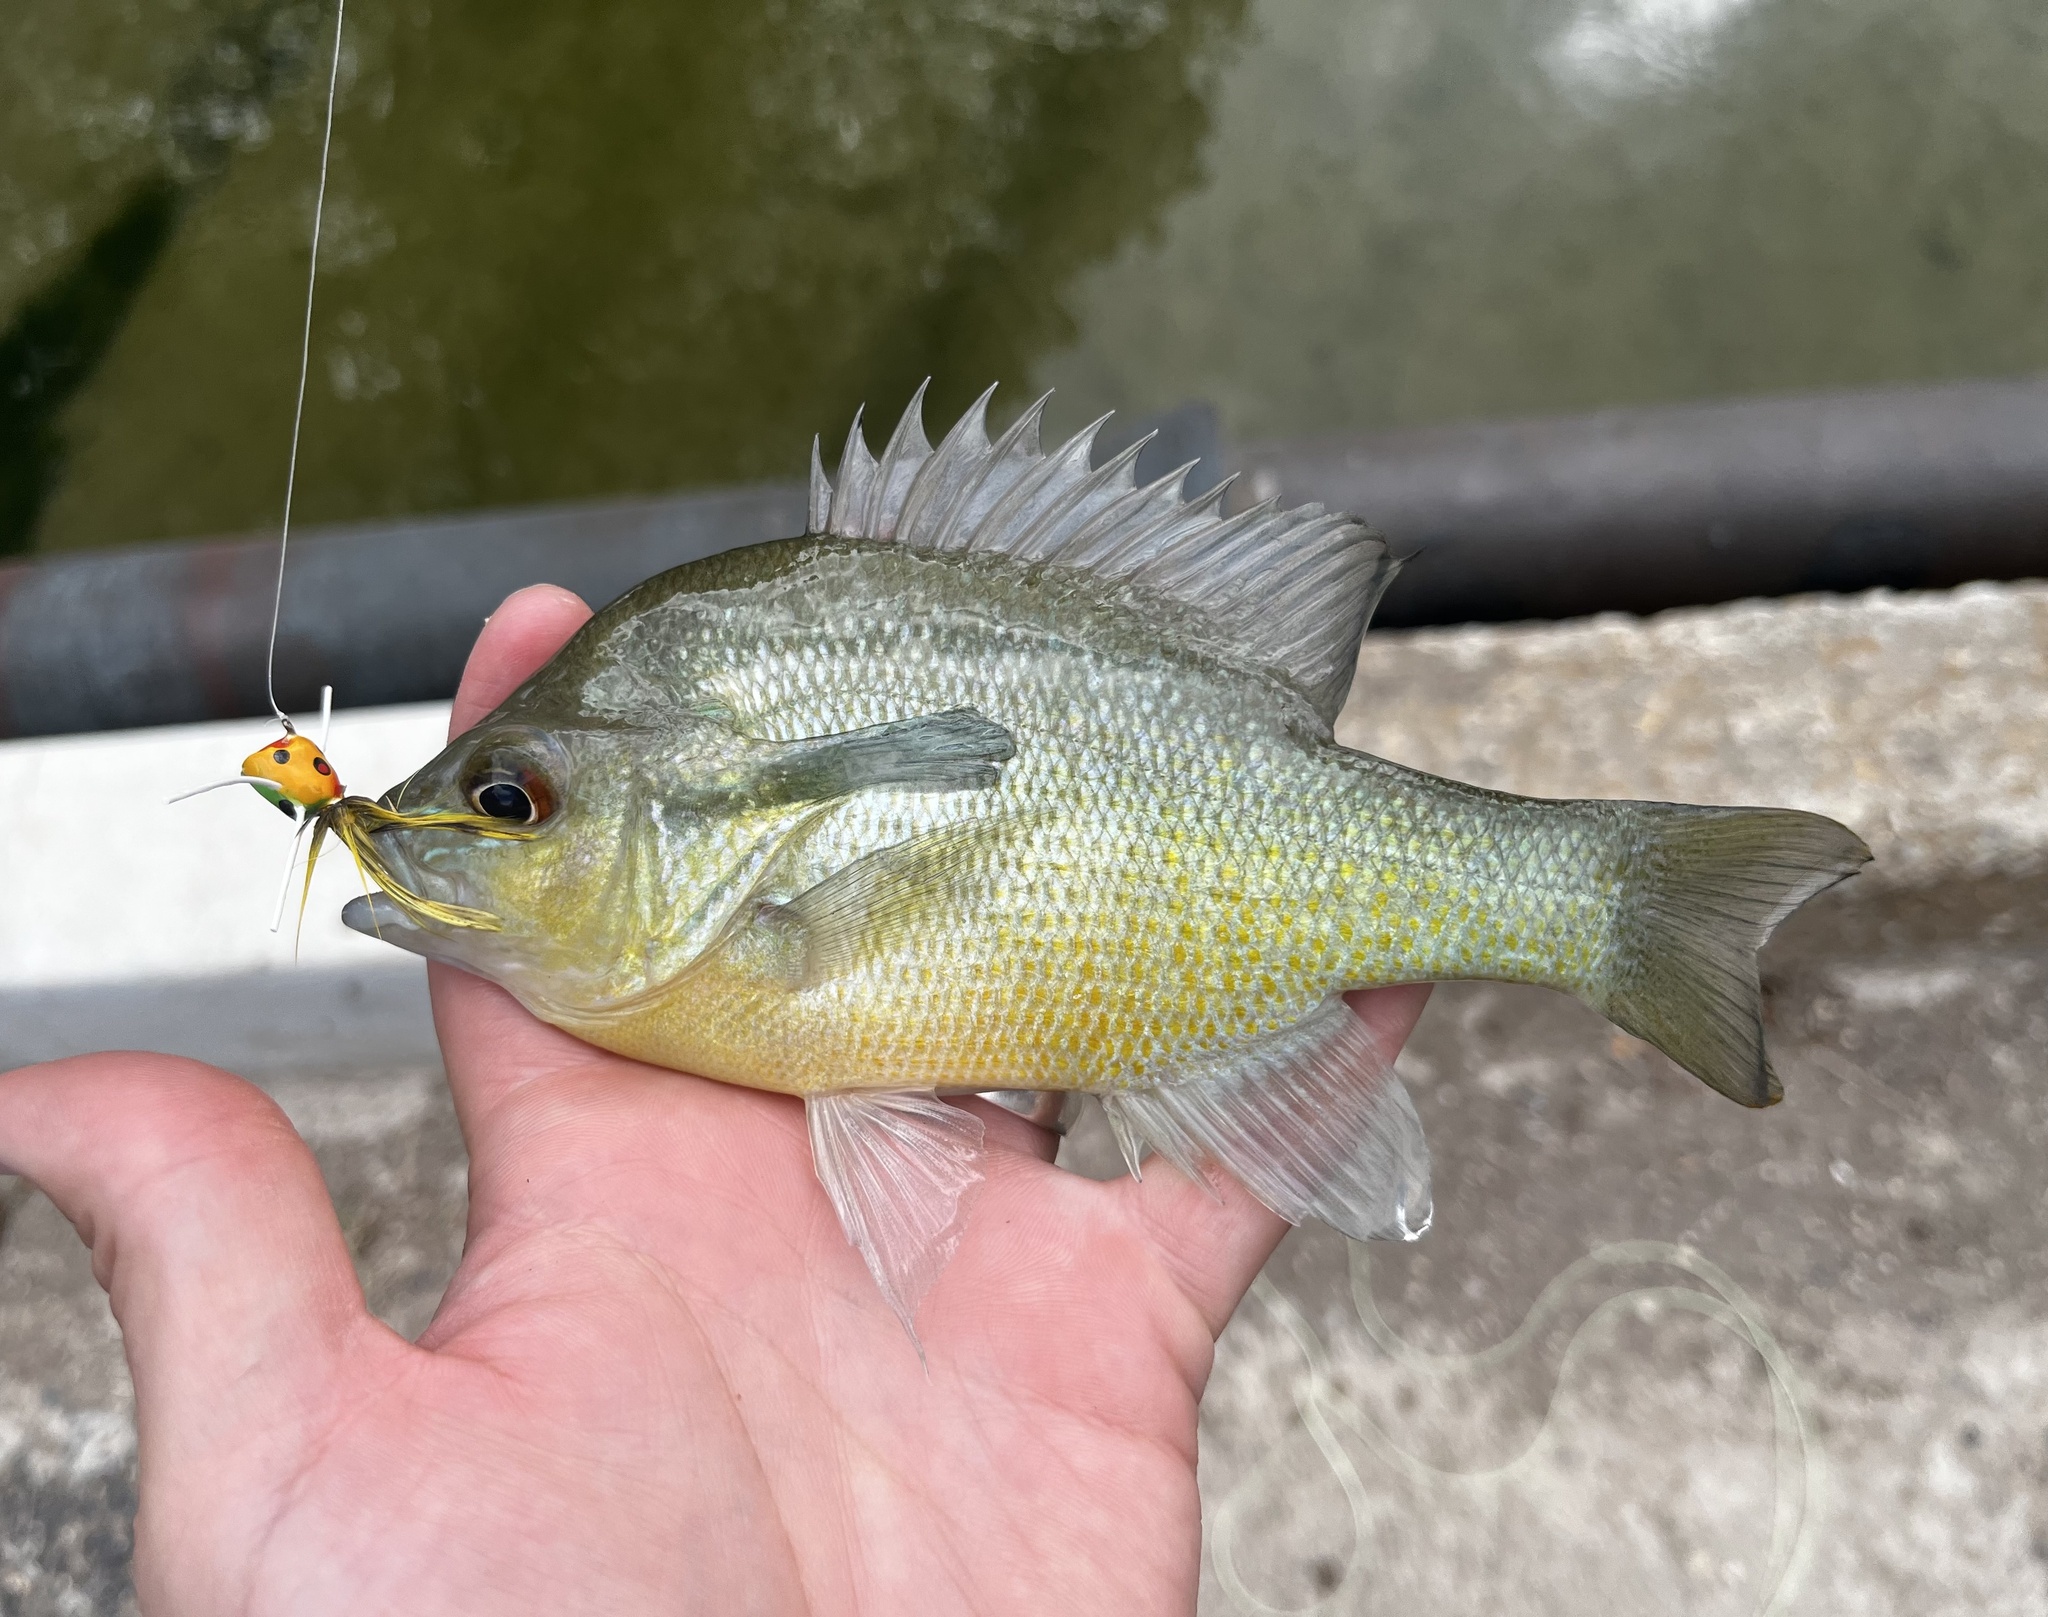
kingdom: Animalia
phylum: Chordata
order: Perciformes
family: Centrarchidae
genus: Lepomis
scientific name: Lepomis auritus
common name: Redbreast sunfish
